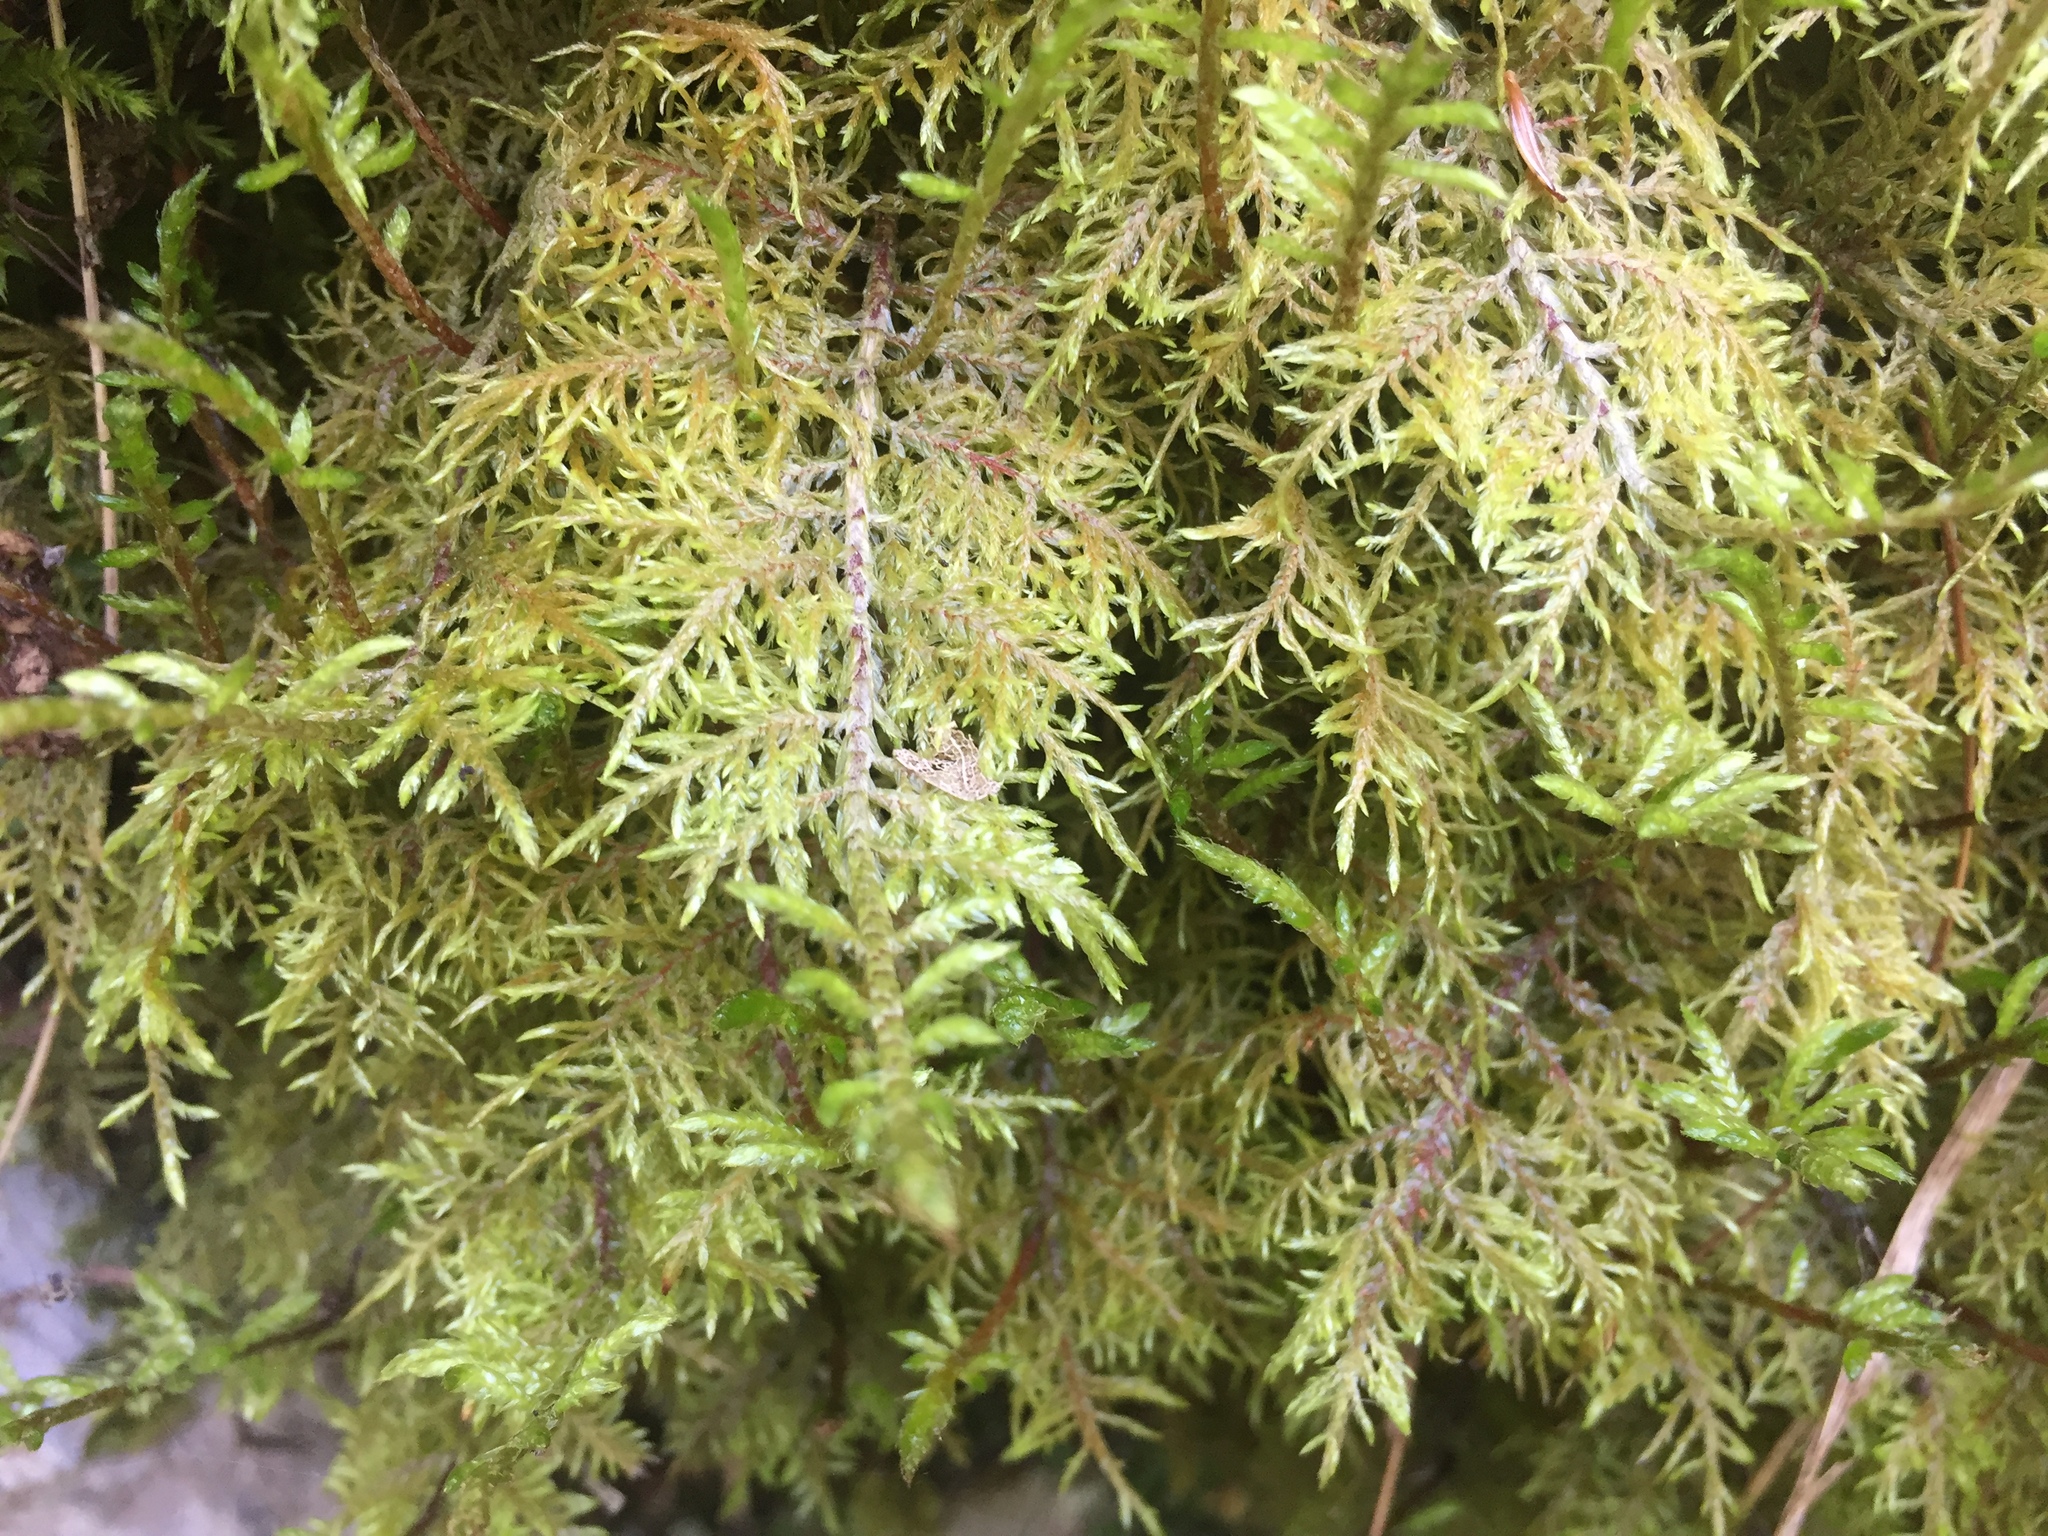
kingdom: Plantae
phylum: Bryophyta
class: Bryopsida
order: Hypnales
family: Hylocomiaceae
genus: Hylocomium
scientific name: Hylocomium splendens
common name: Stairstep moss
